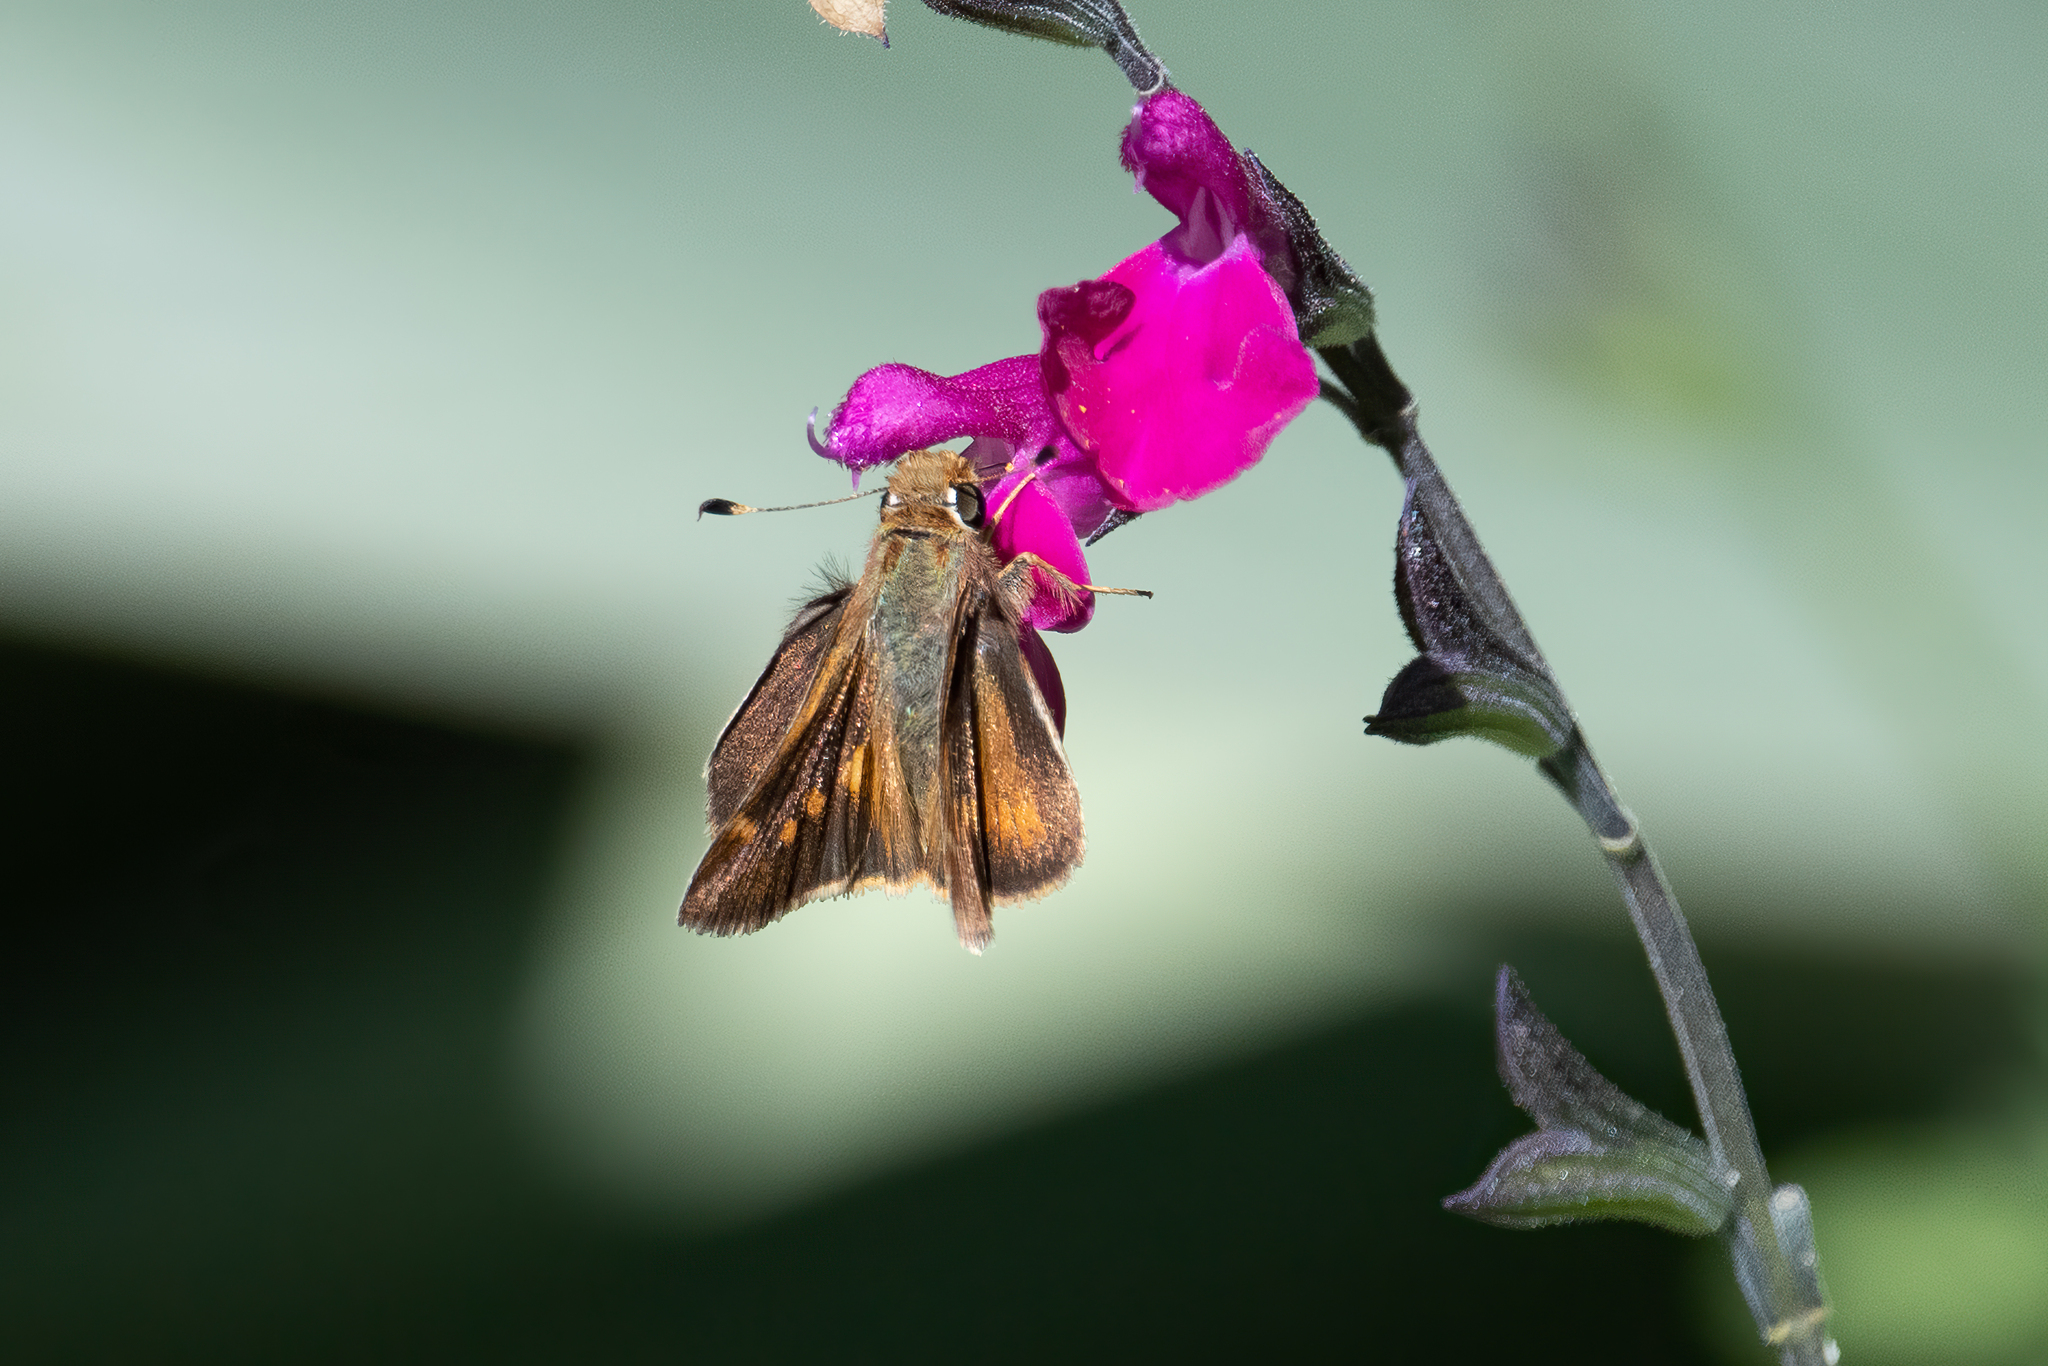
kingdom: Animalia
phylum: Arthropoda
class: Insecta
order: Lepidoptera
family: Hesperiidae
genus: Lon
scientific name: Lon melane
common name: Umber skipper
